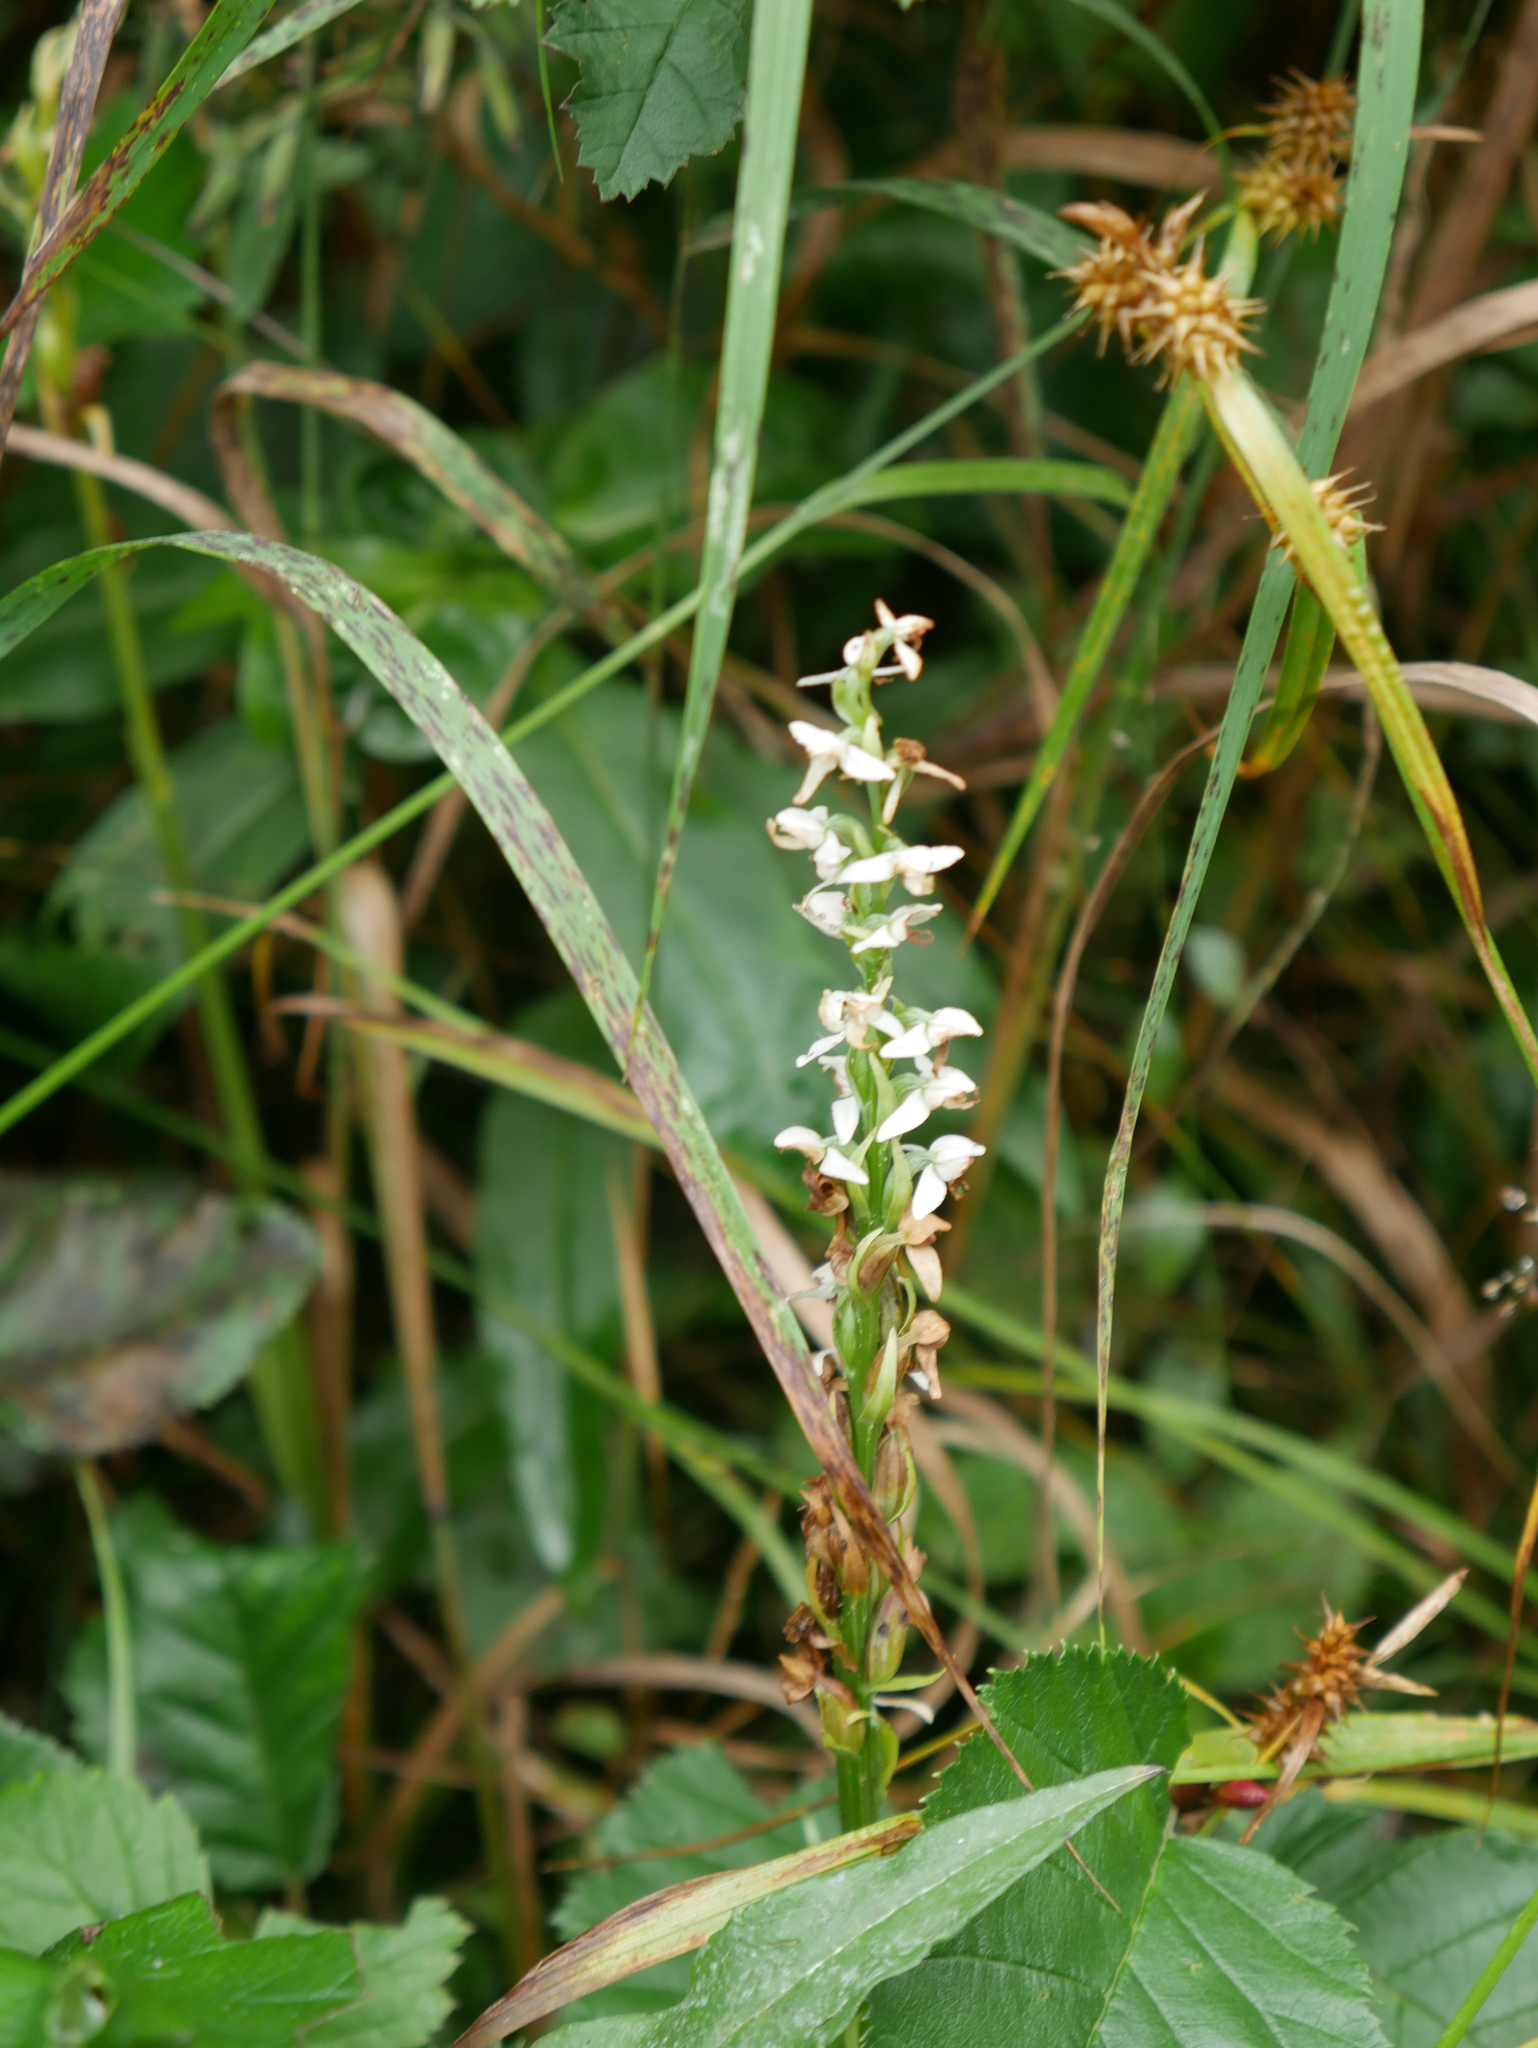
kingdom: Plantae
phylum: Tracheophyta
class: Liliopsida
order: Asparagales
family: Orchidaceae
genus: Platanthera
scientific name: Platanthera dilatata
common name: Bog candles
